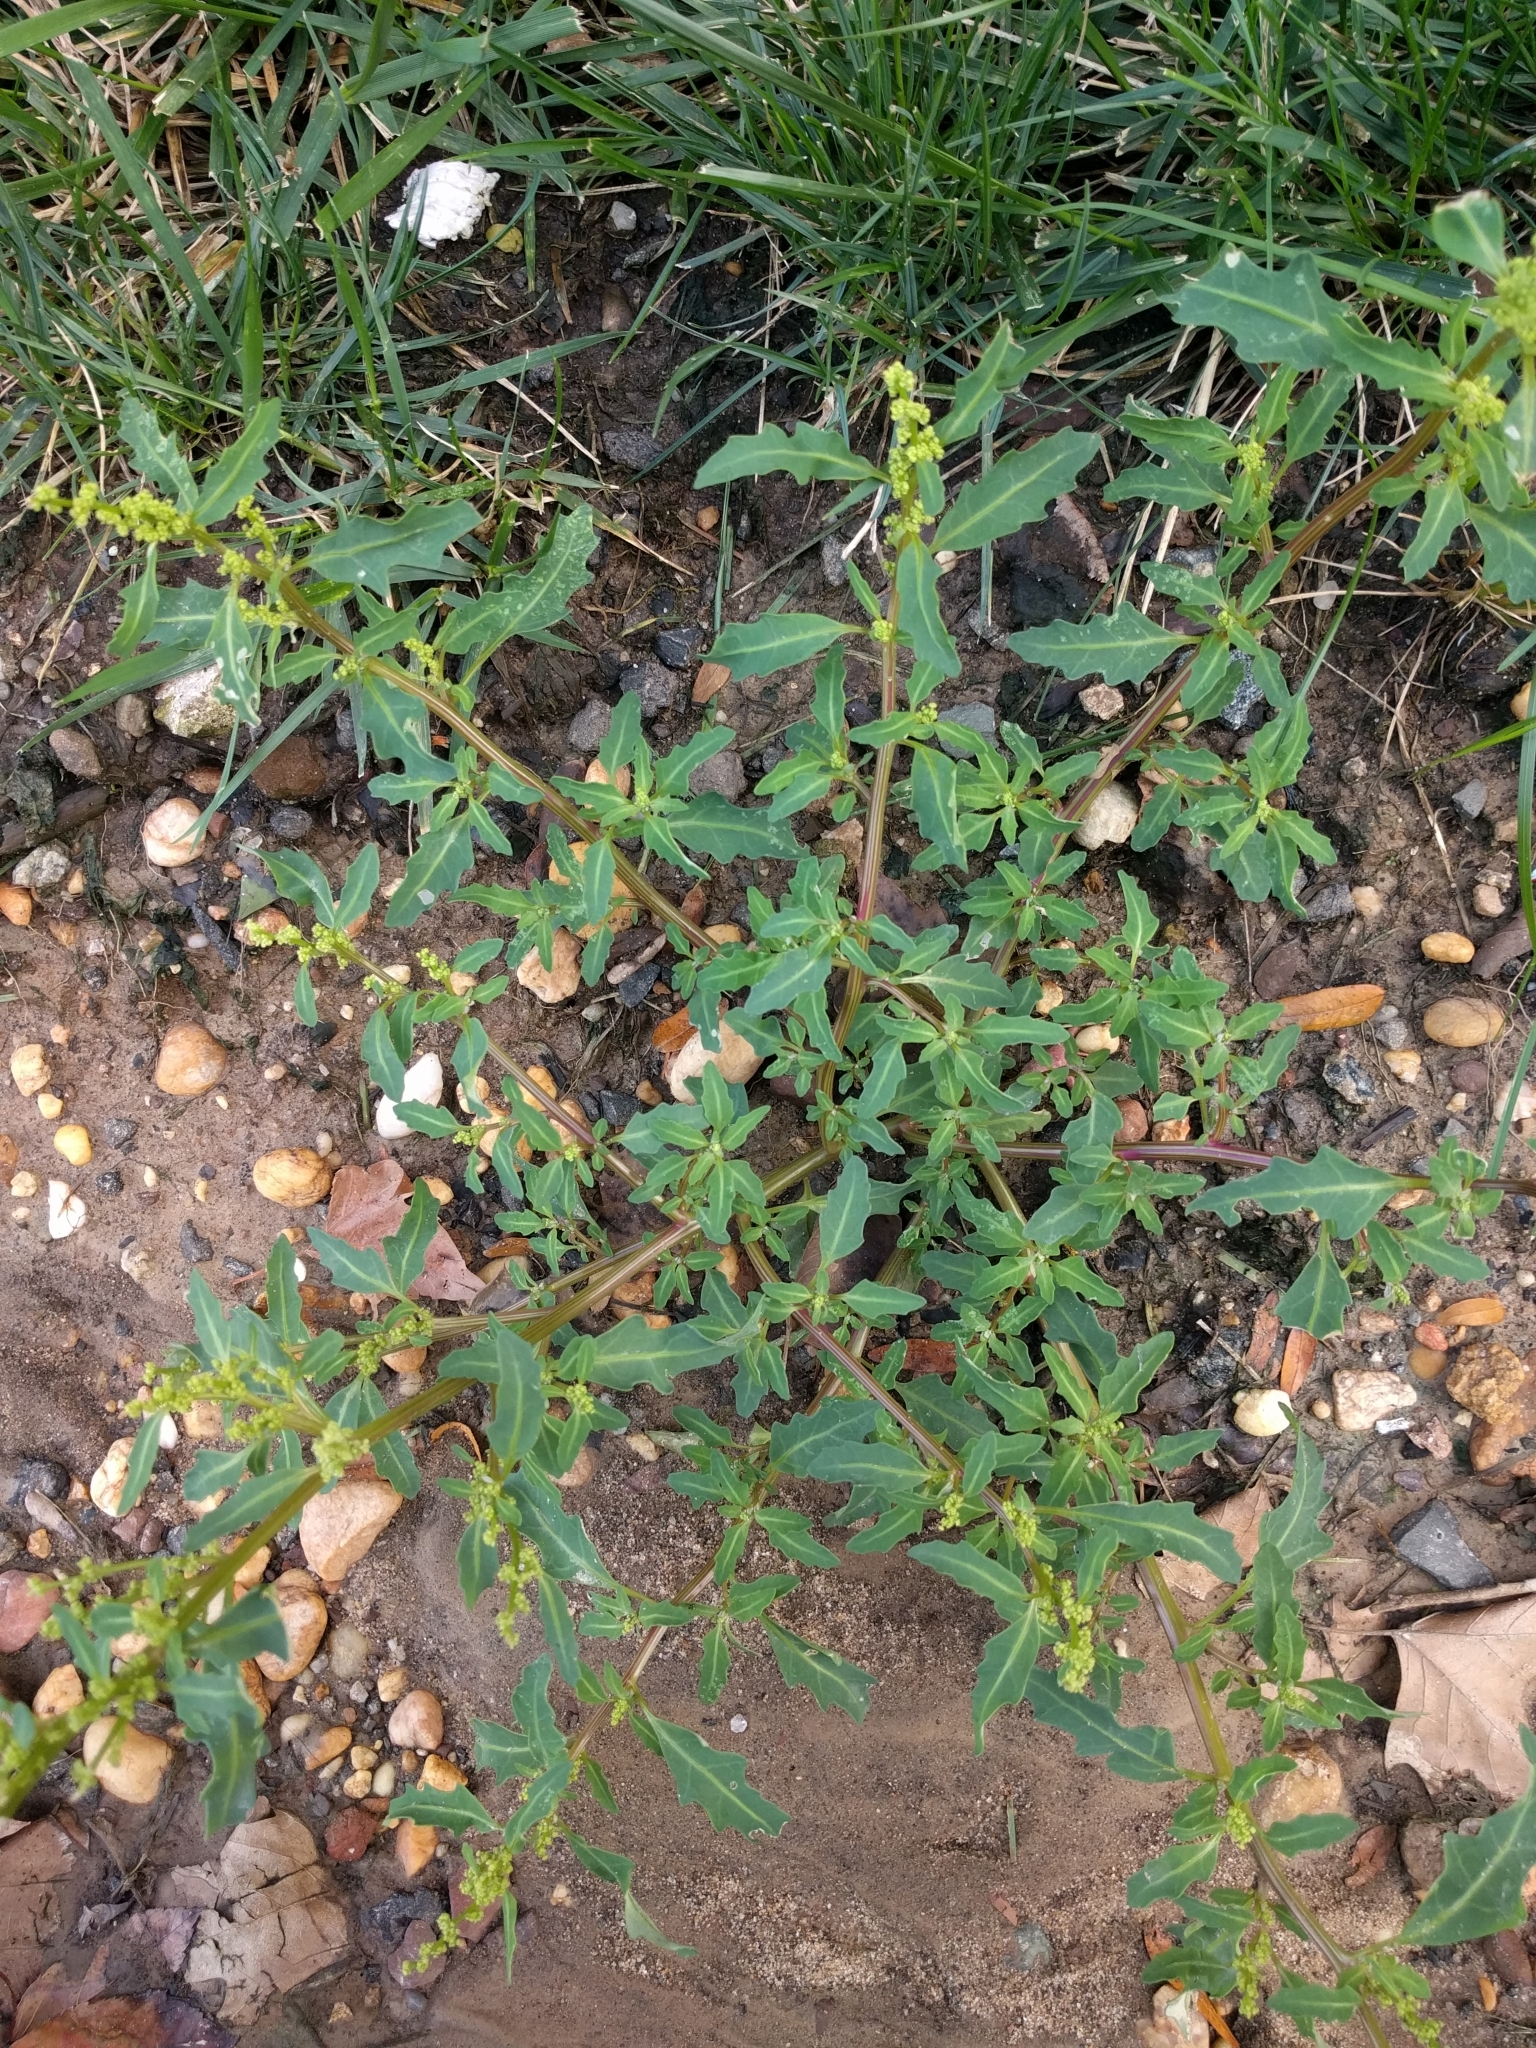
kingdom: Plantae
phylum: Tracheophyta
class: Magnoliopsida
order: Caryophyllales
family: Amaranthaceae
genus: Oxybasis
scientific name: Oxybasis glauca
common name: Glaucous goosefoot
